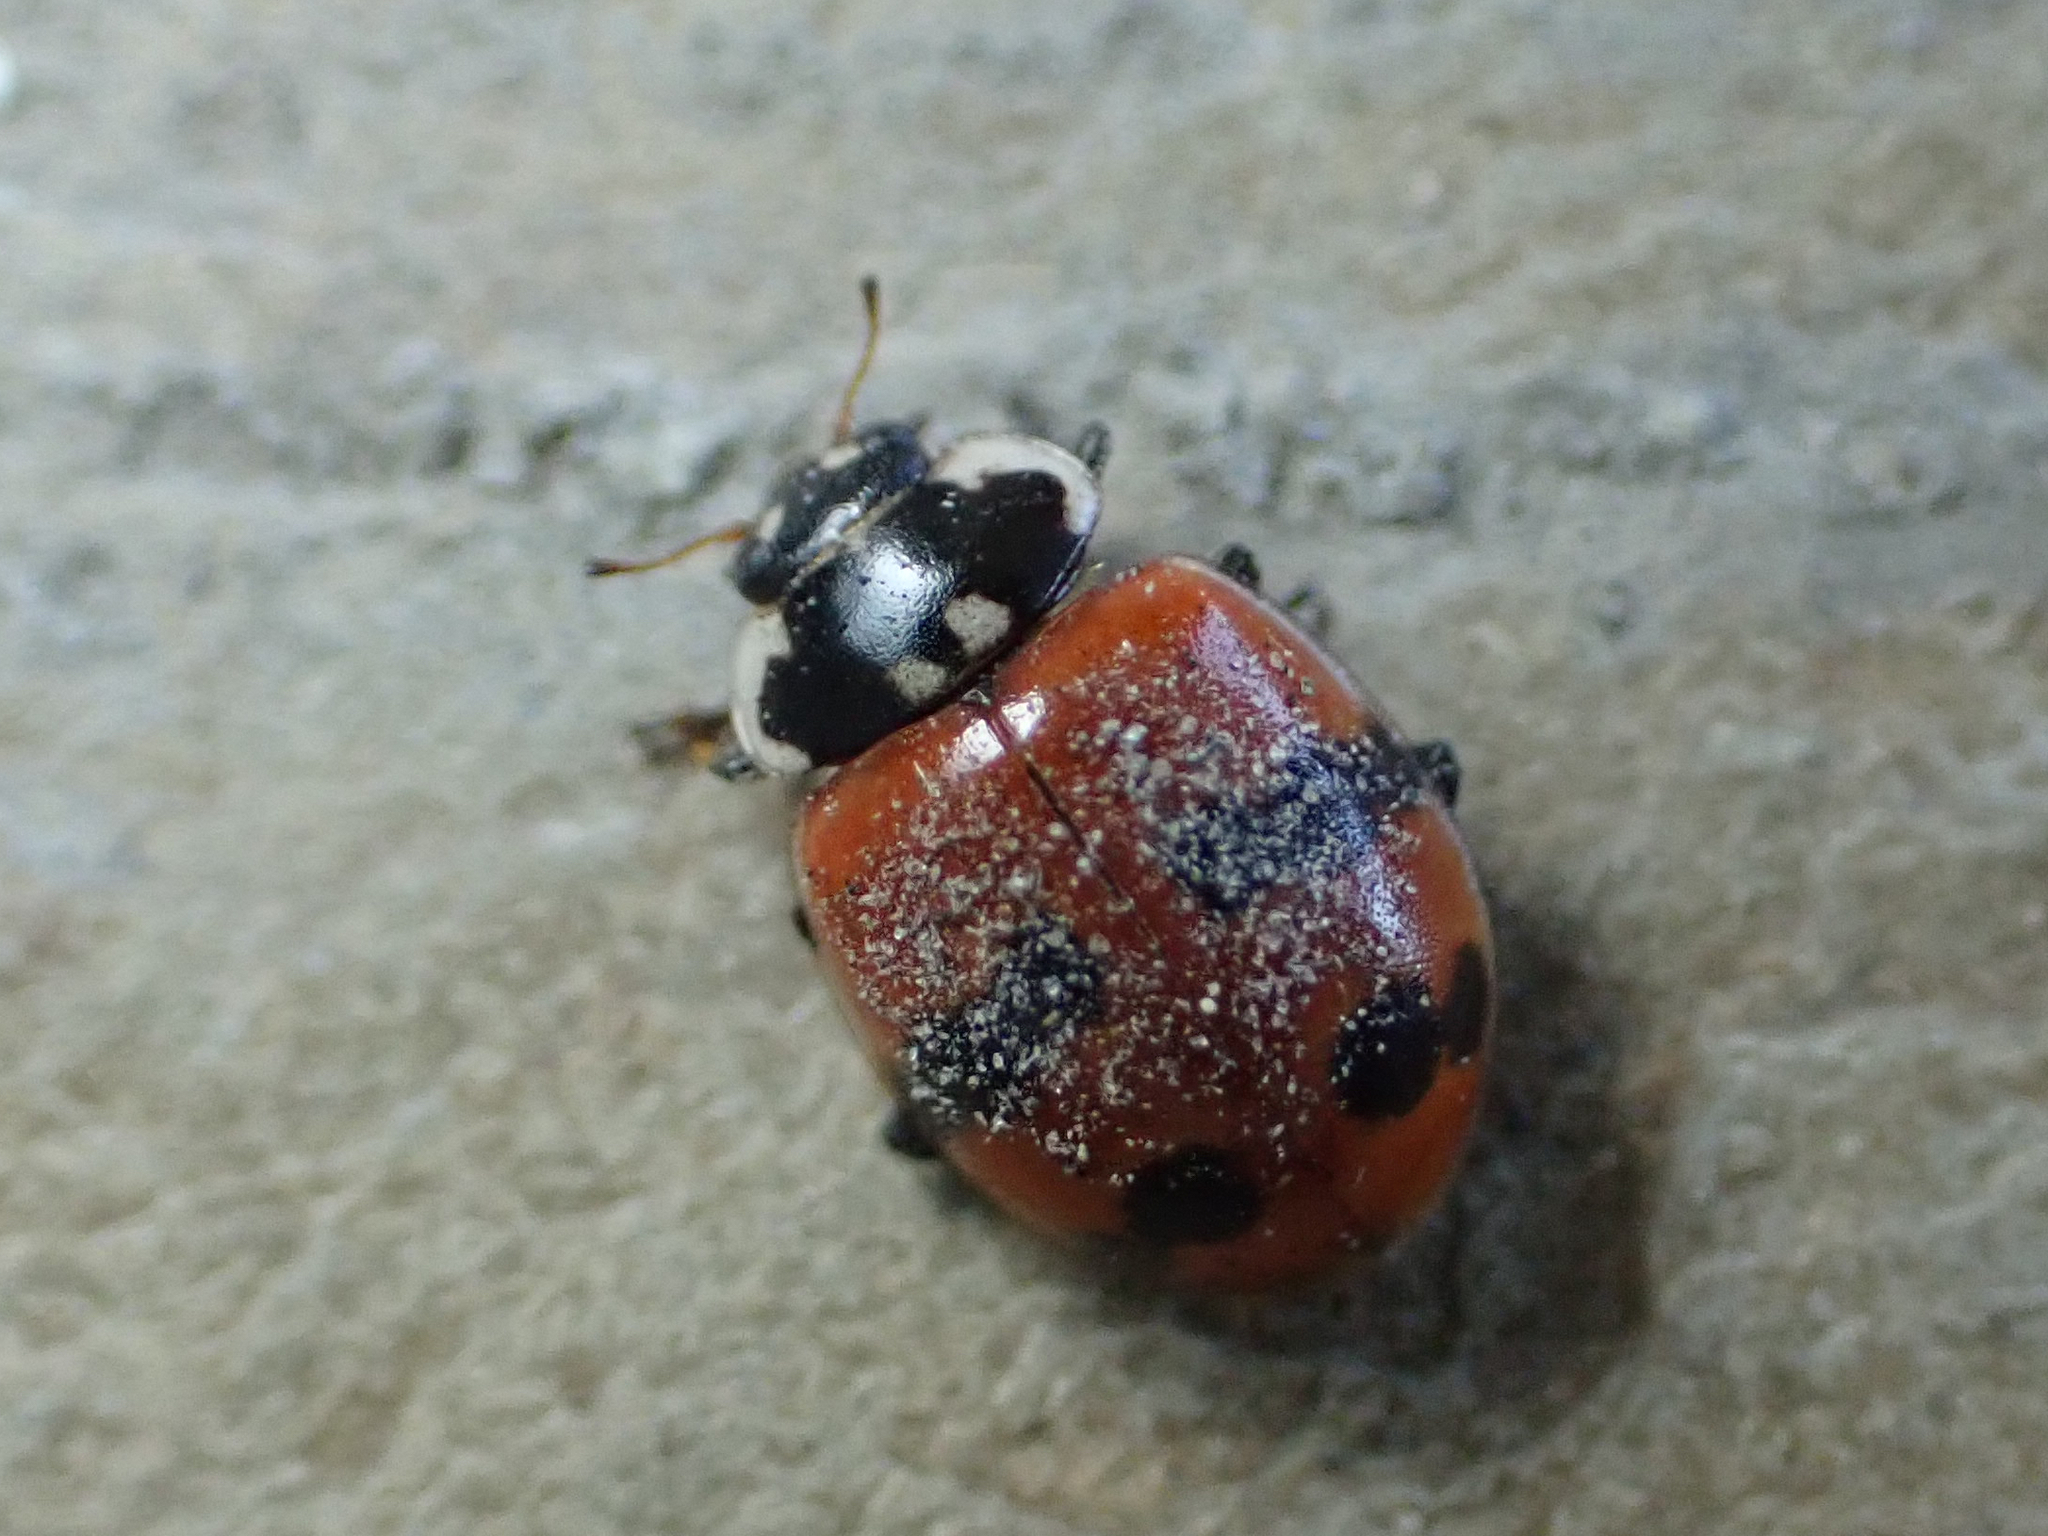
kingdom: Animalia
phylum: Arthropoda
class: Insecta
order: Coleoptera
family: Coccinellidae
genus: Adalia
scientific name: Adalia bipunctata
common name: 2-spot ladybird
